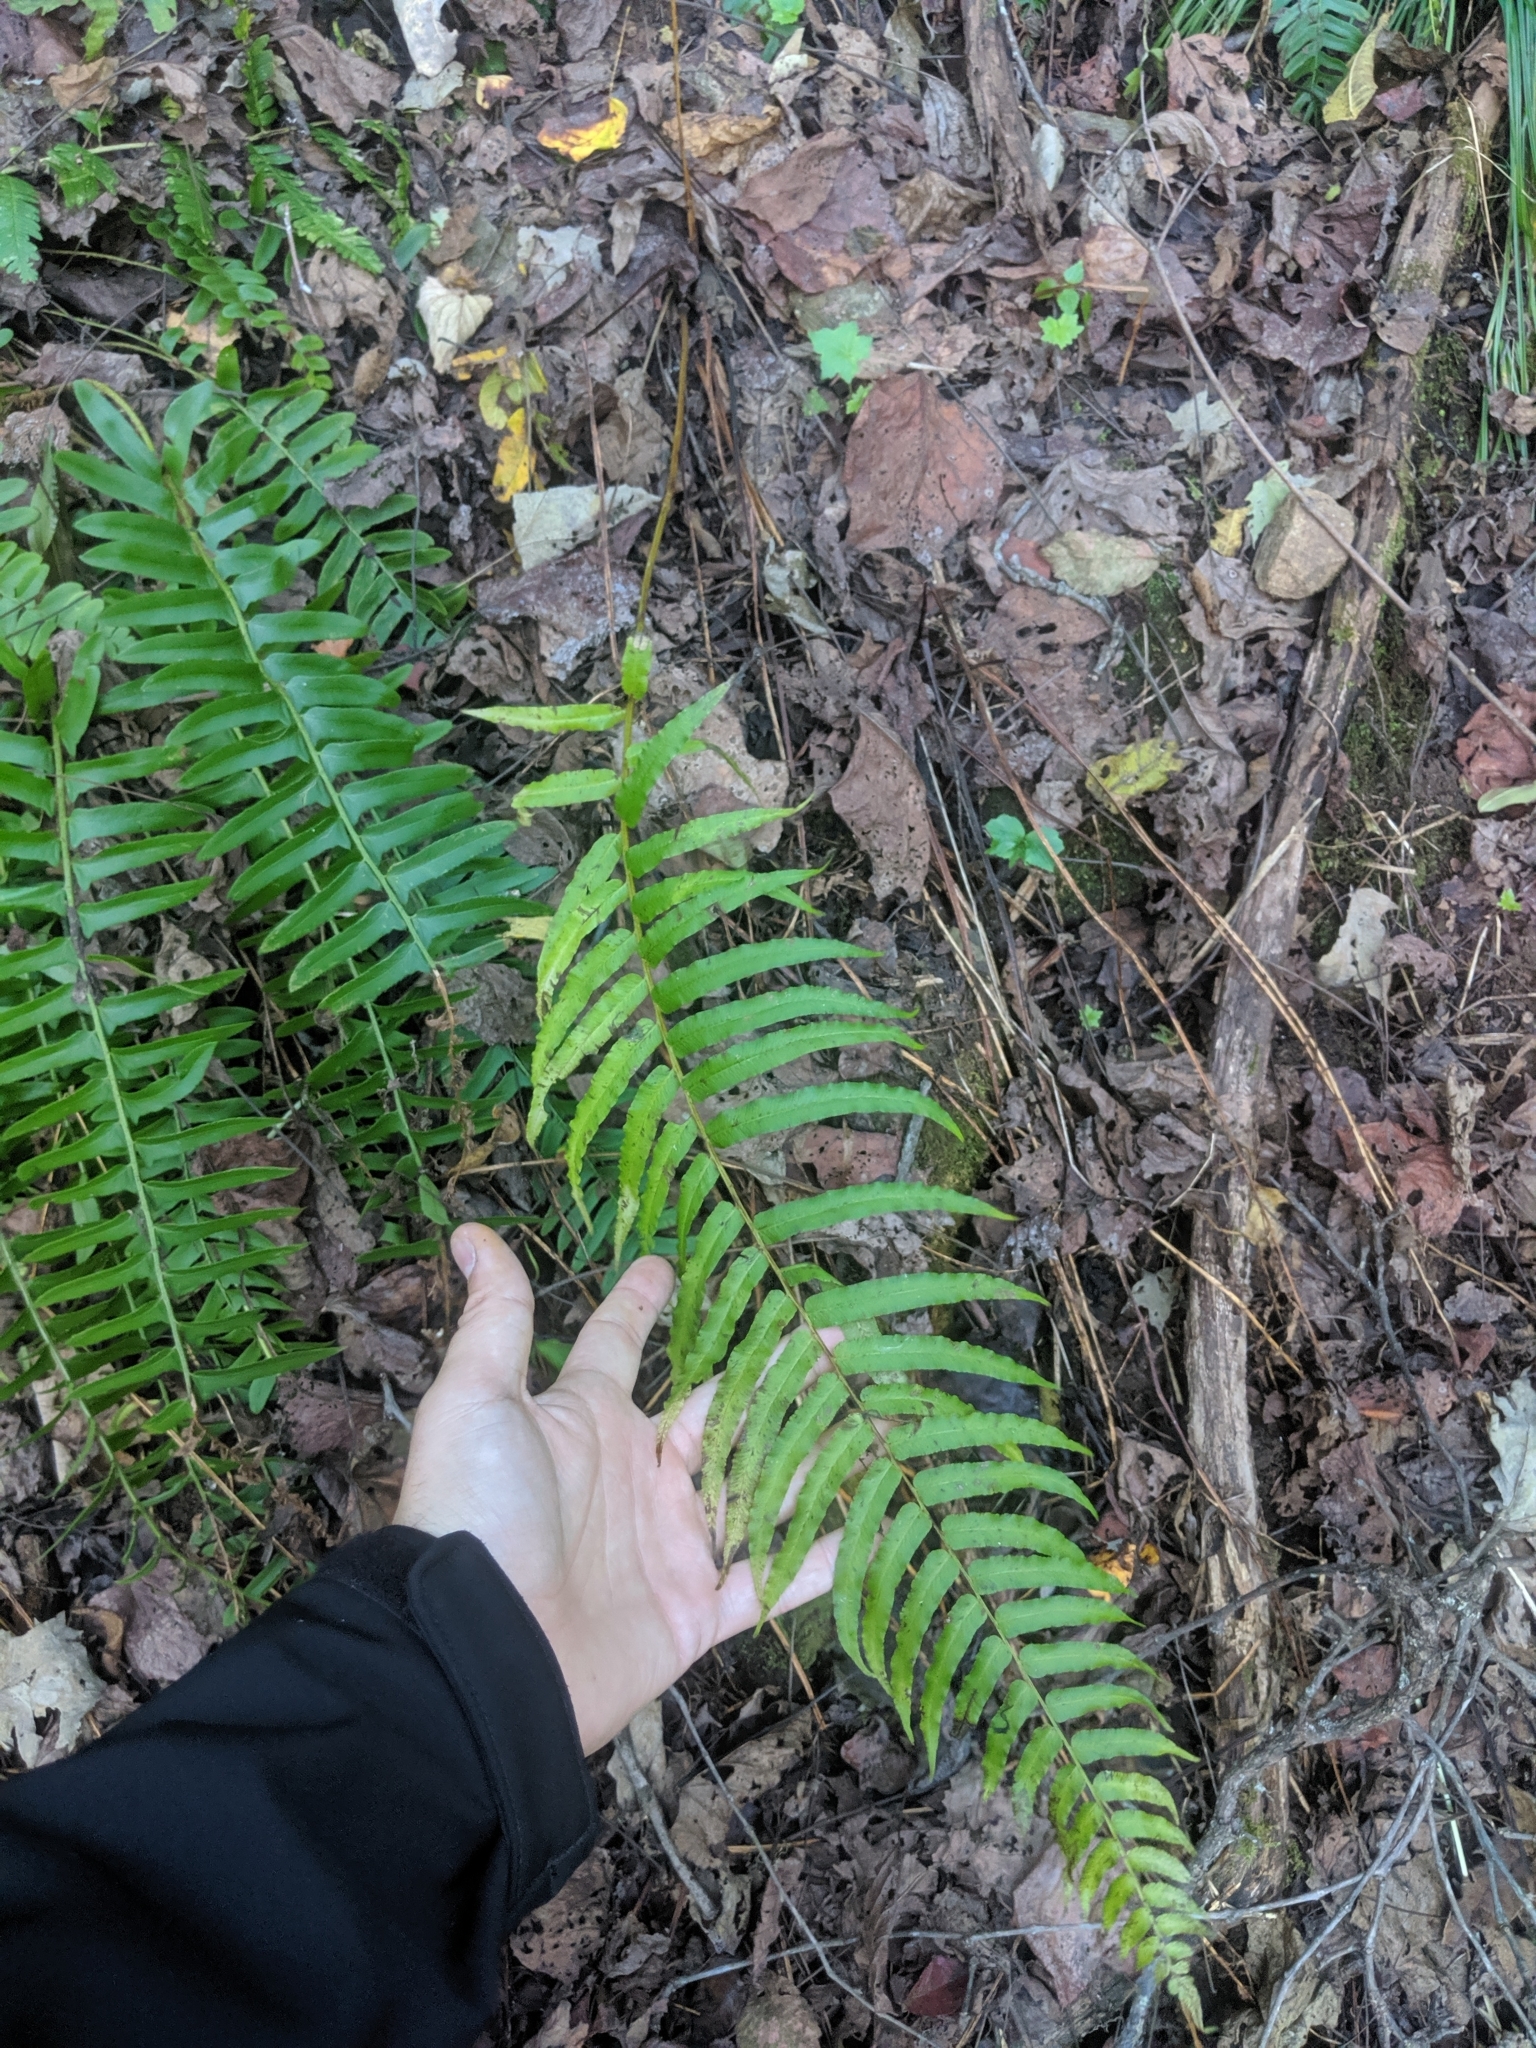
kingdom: Plantae
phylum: Tracheophyta
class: Polypodiopsida
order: Polypodiales
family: Diplaziopsidaceae
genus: Homalosorus
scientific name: Homalosorus pycnocarpos
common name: Glade fern
